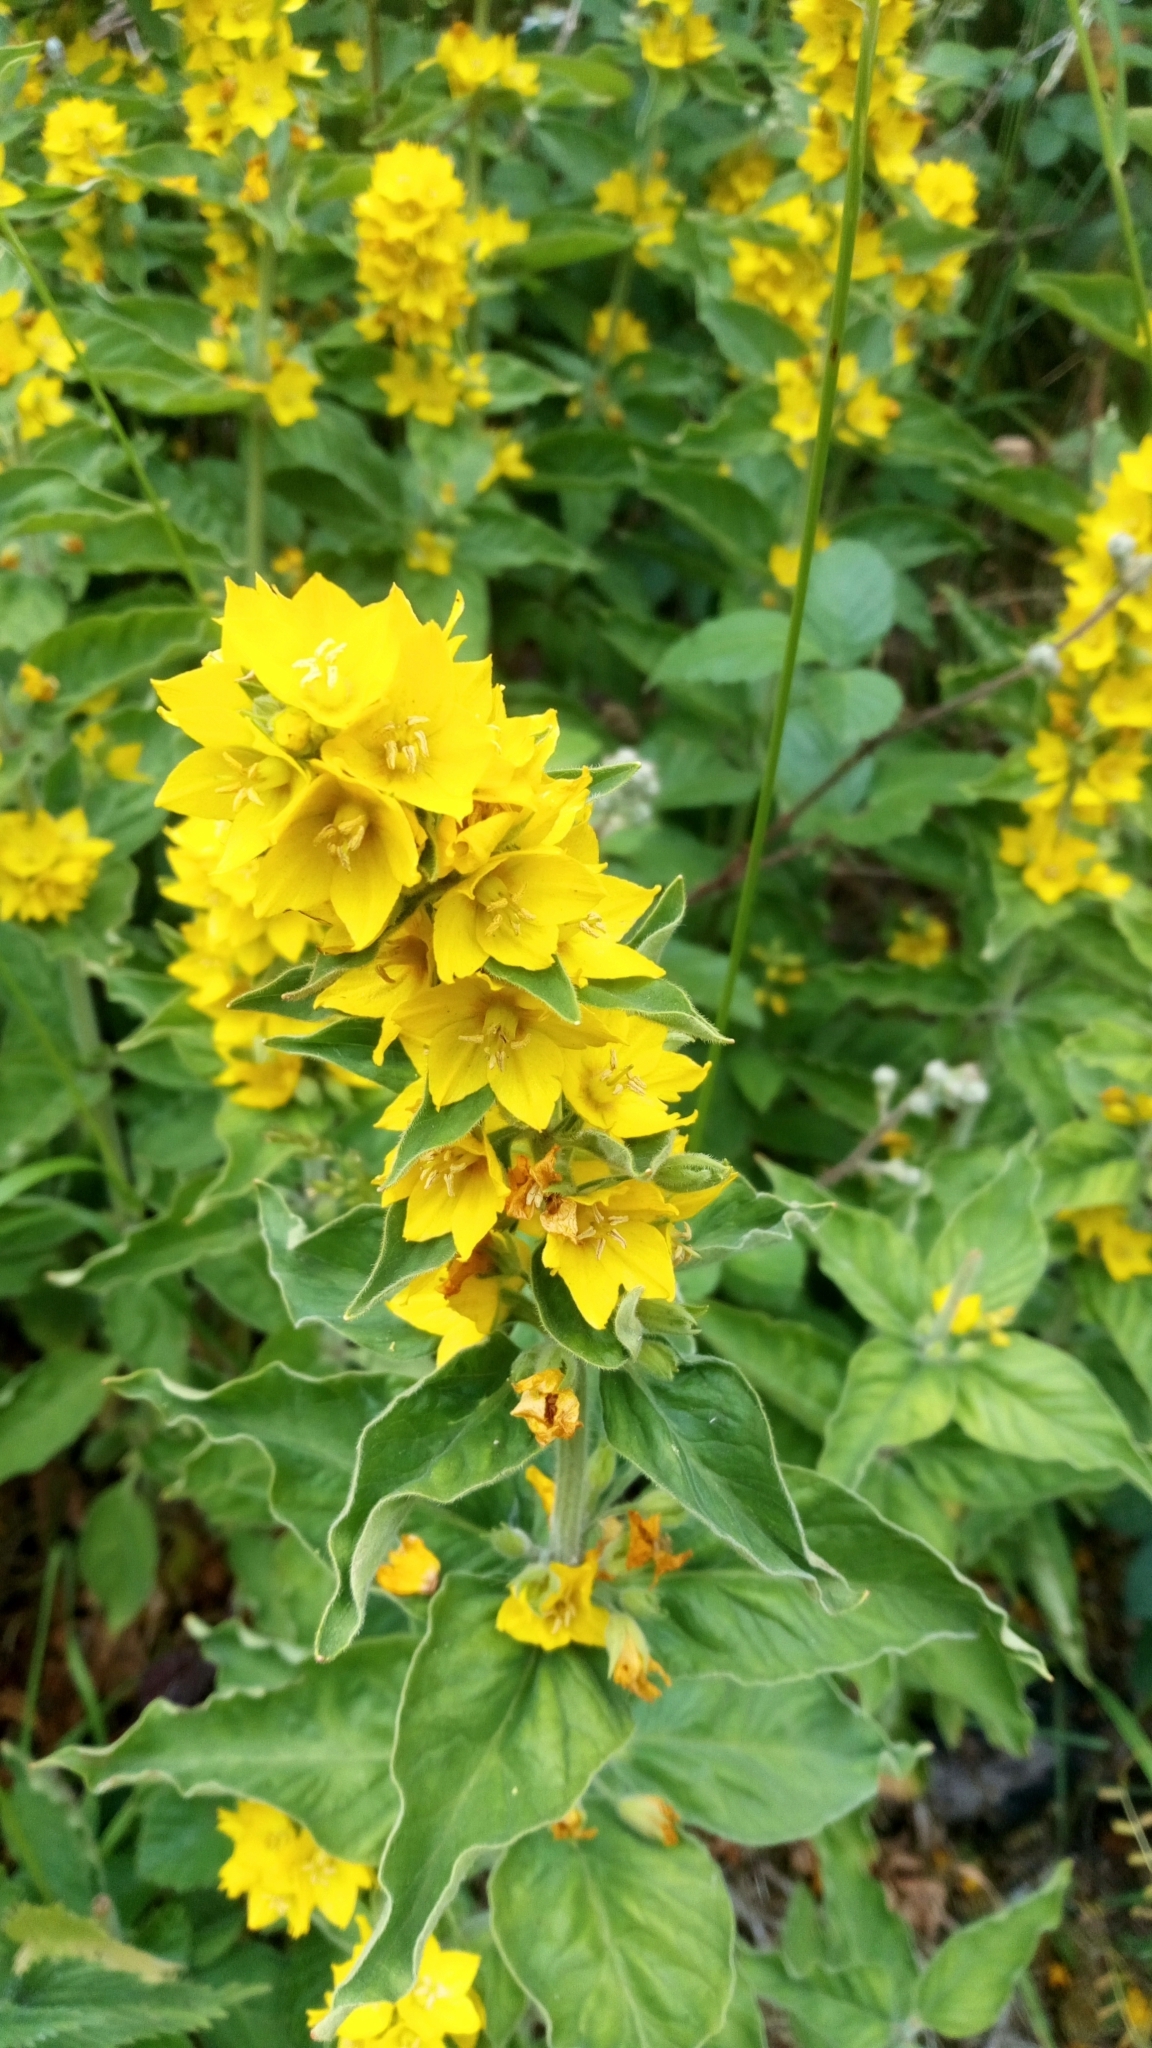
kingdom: Plantae
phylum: Tracheophyta
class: Magnoliopsida
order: Ericales
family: Primulaceae
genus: Lysimachia
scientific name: Lysimachia punctata
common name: Dotted loosestrife
